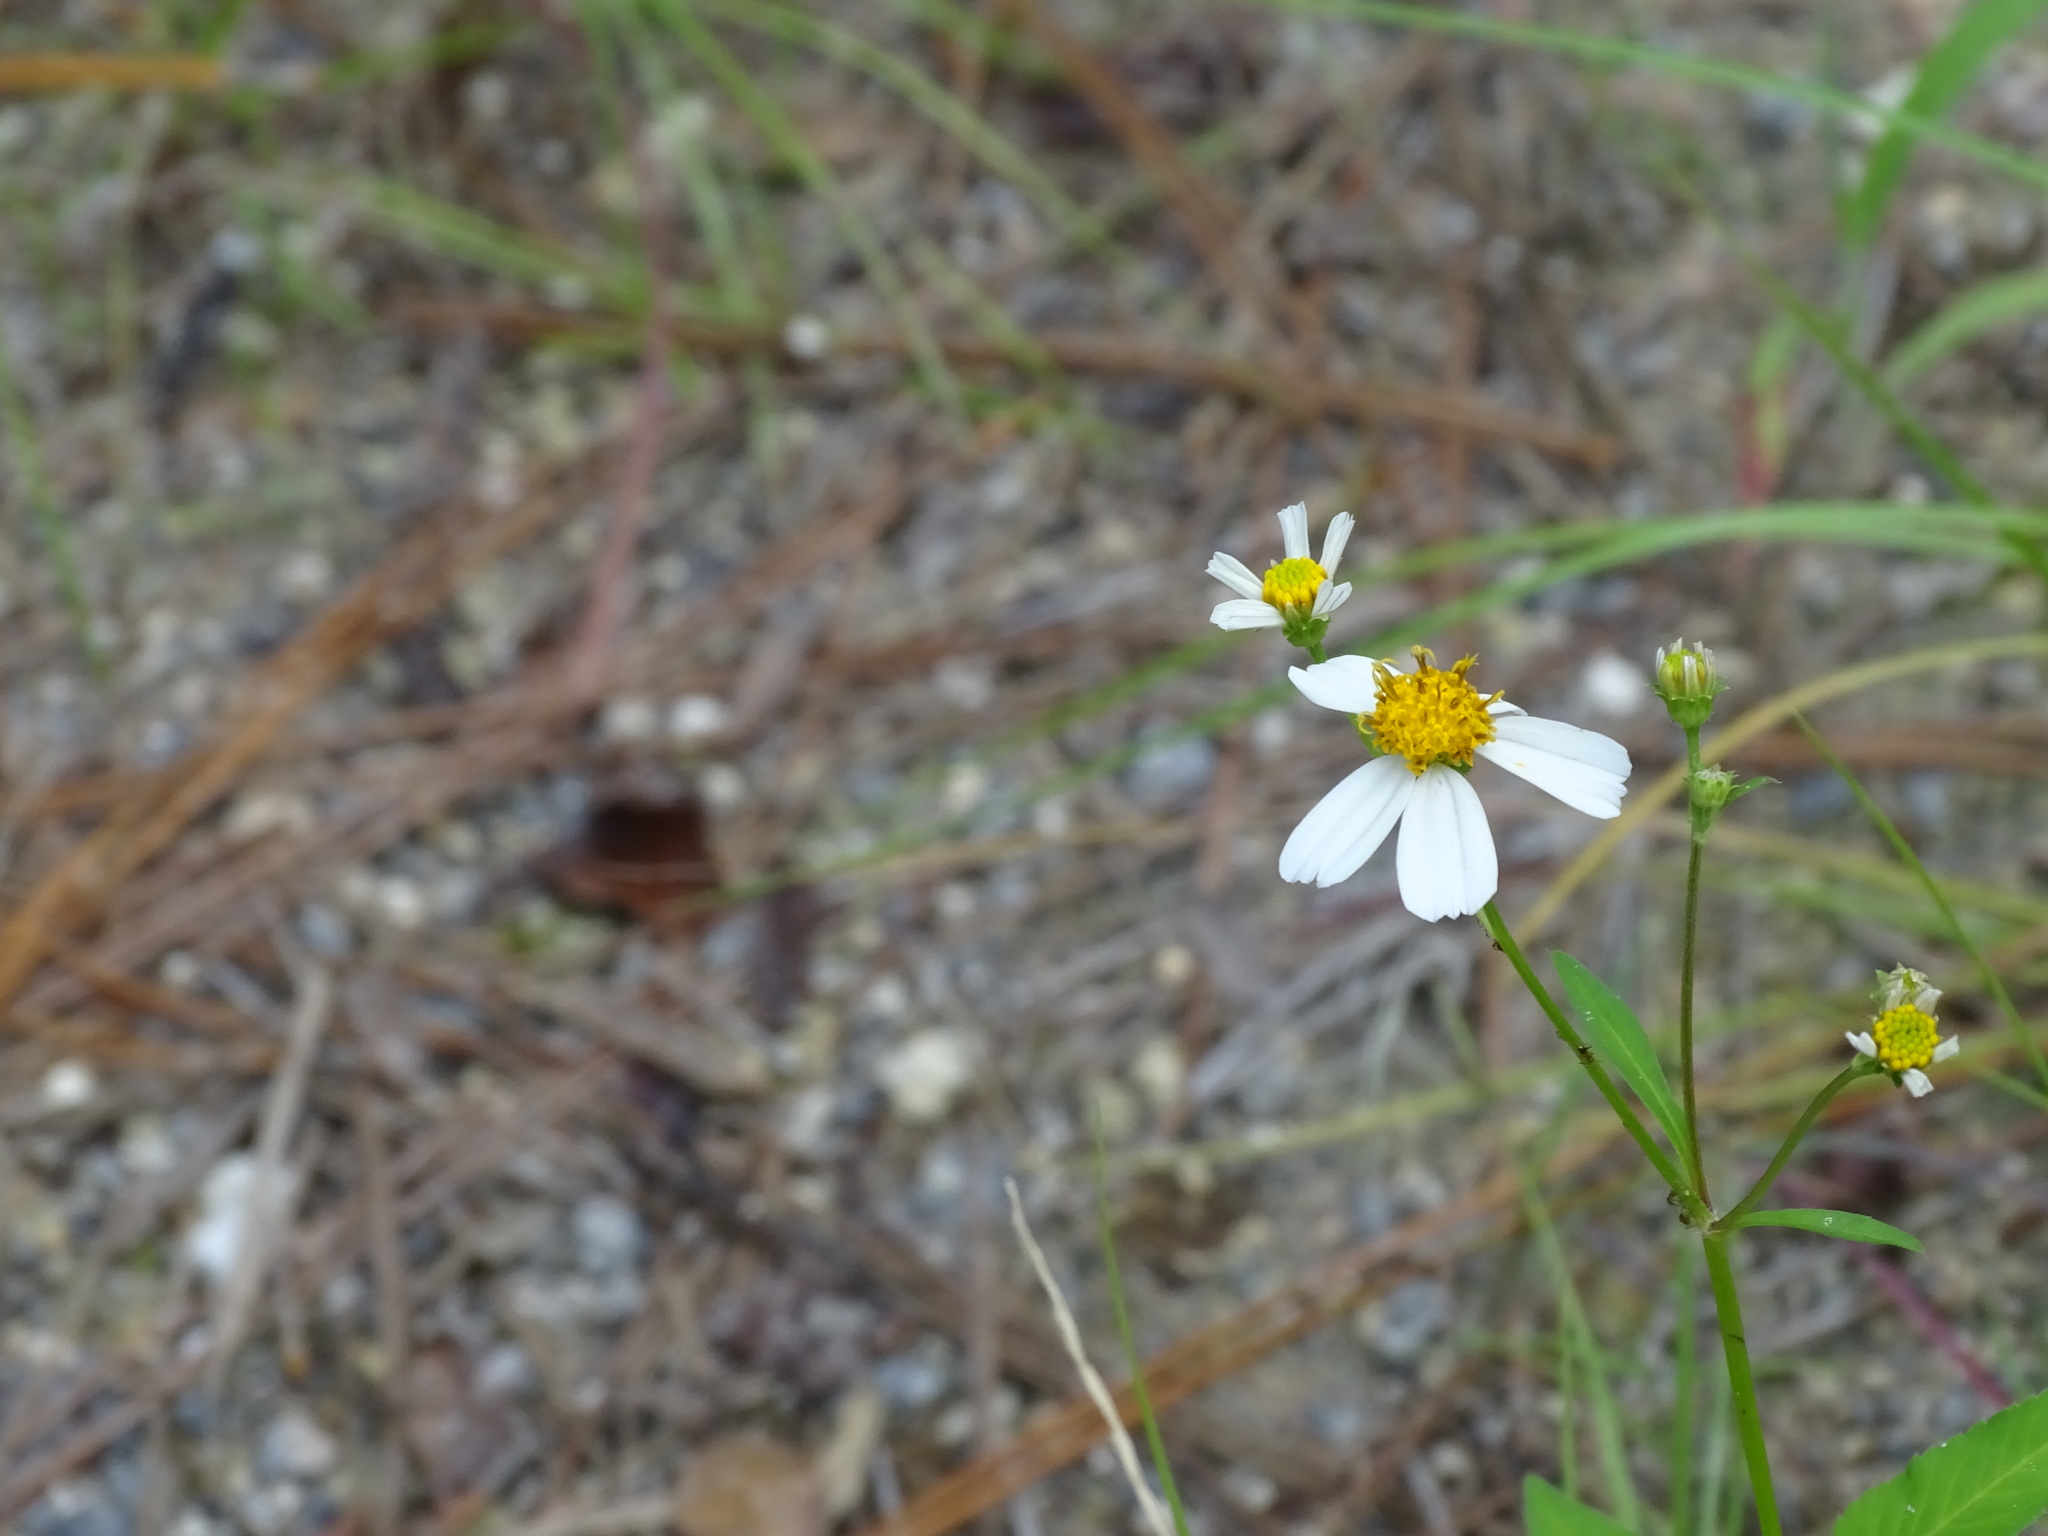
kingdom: Plantae
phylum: Tracheophyta
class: Magnoliopsida
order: Asterales
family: Asteraceae
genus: Bidens
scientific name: Bidens alba
